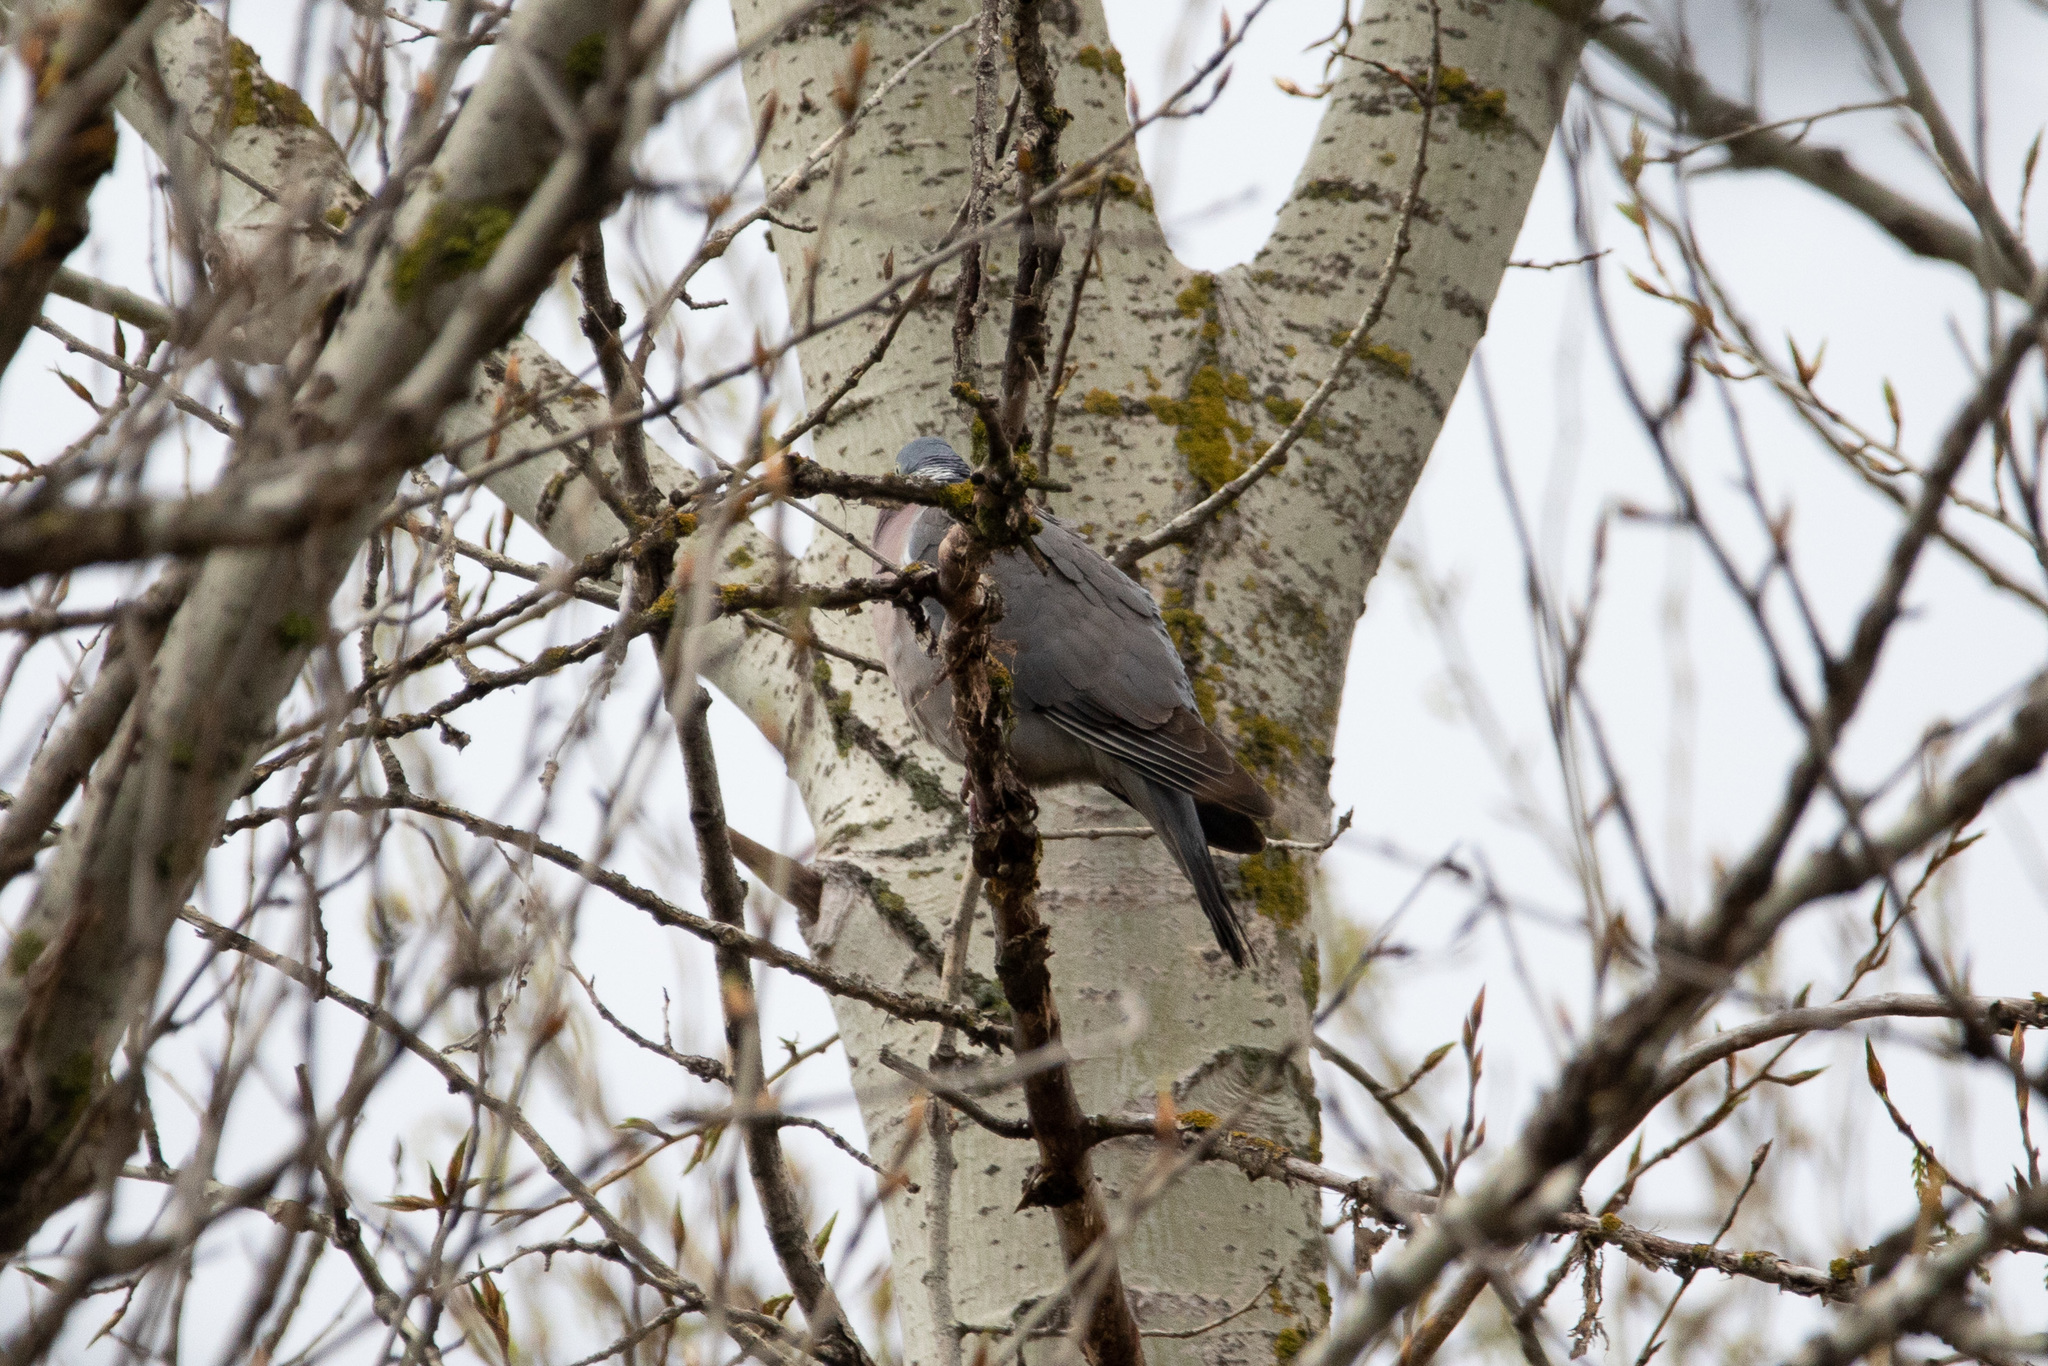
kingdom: Animalia
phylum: Chordata
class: Aves
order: Columbiformes
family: Columbidae
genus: Columba
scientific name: Columba palumbus
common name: Common wood pigeon
